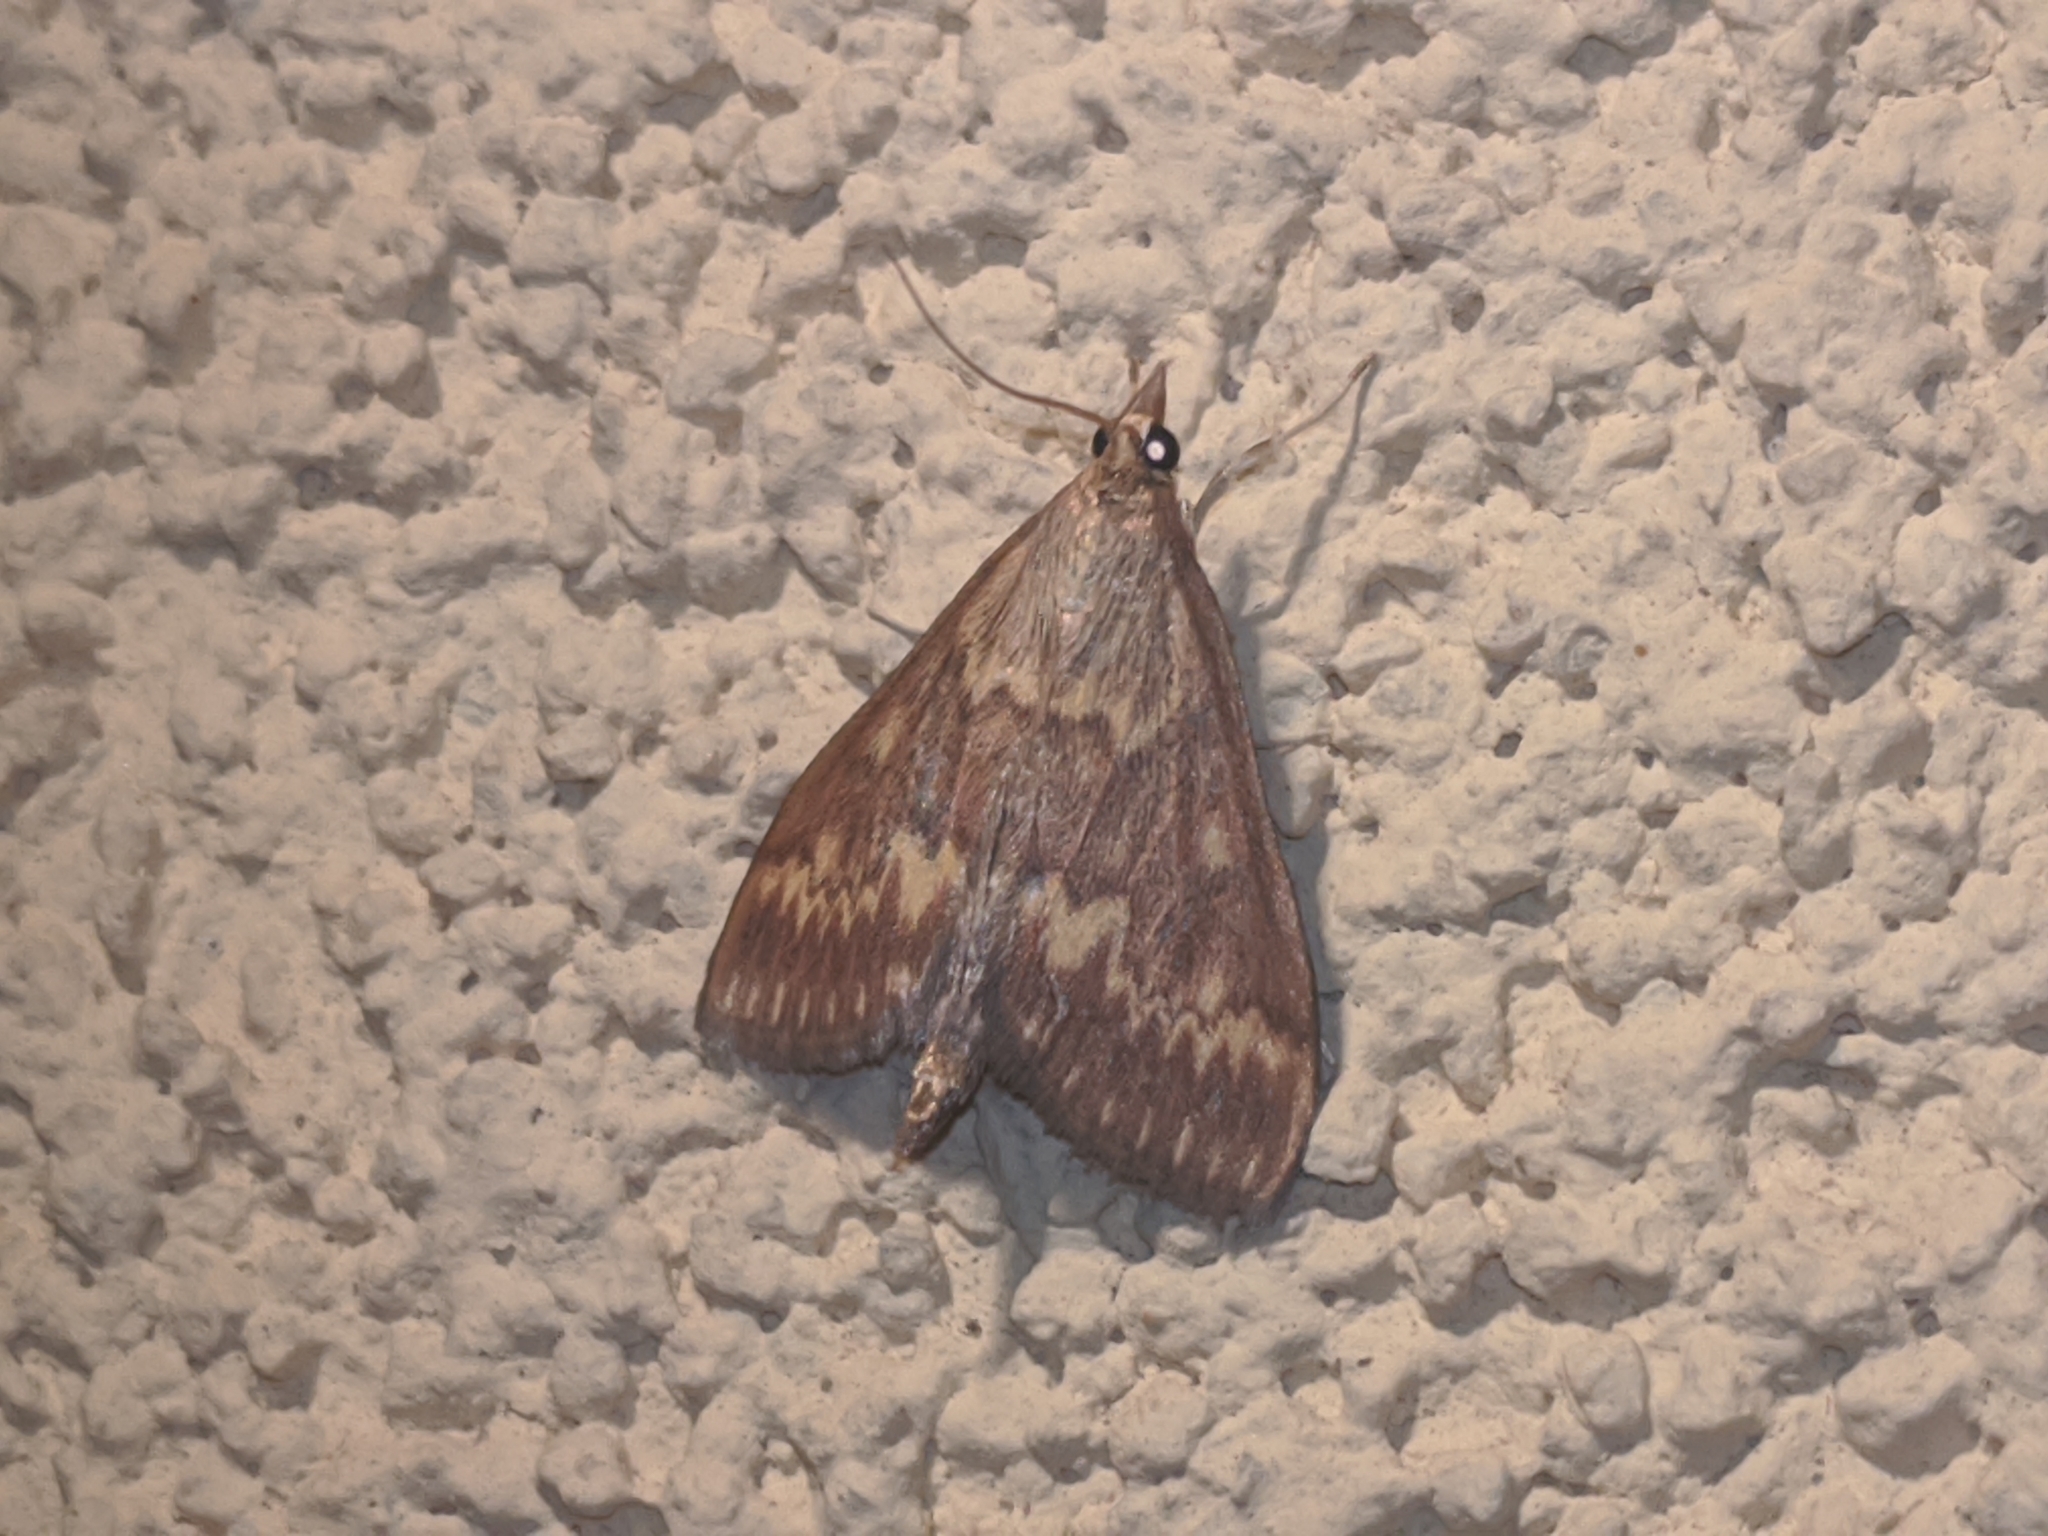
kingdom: Animalia
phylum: Arthropoda
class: Insecta
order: Lepidoptera
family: Crambidae
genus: Ostrinia
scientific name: Ostrinia nubilalis
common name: European corn borer
